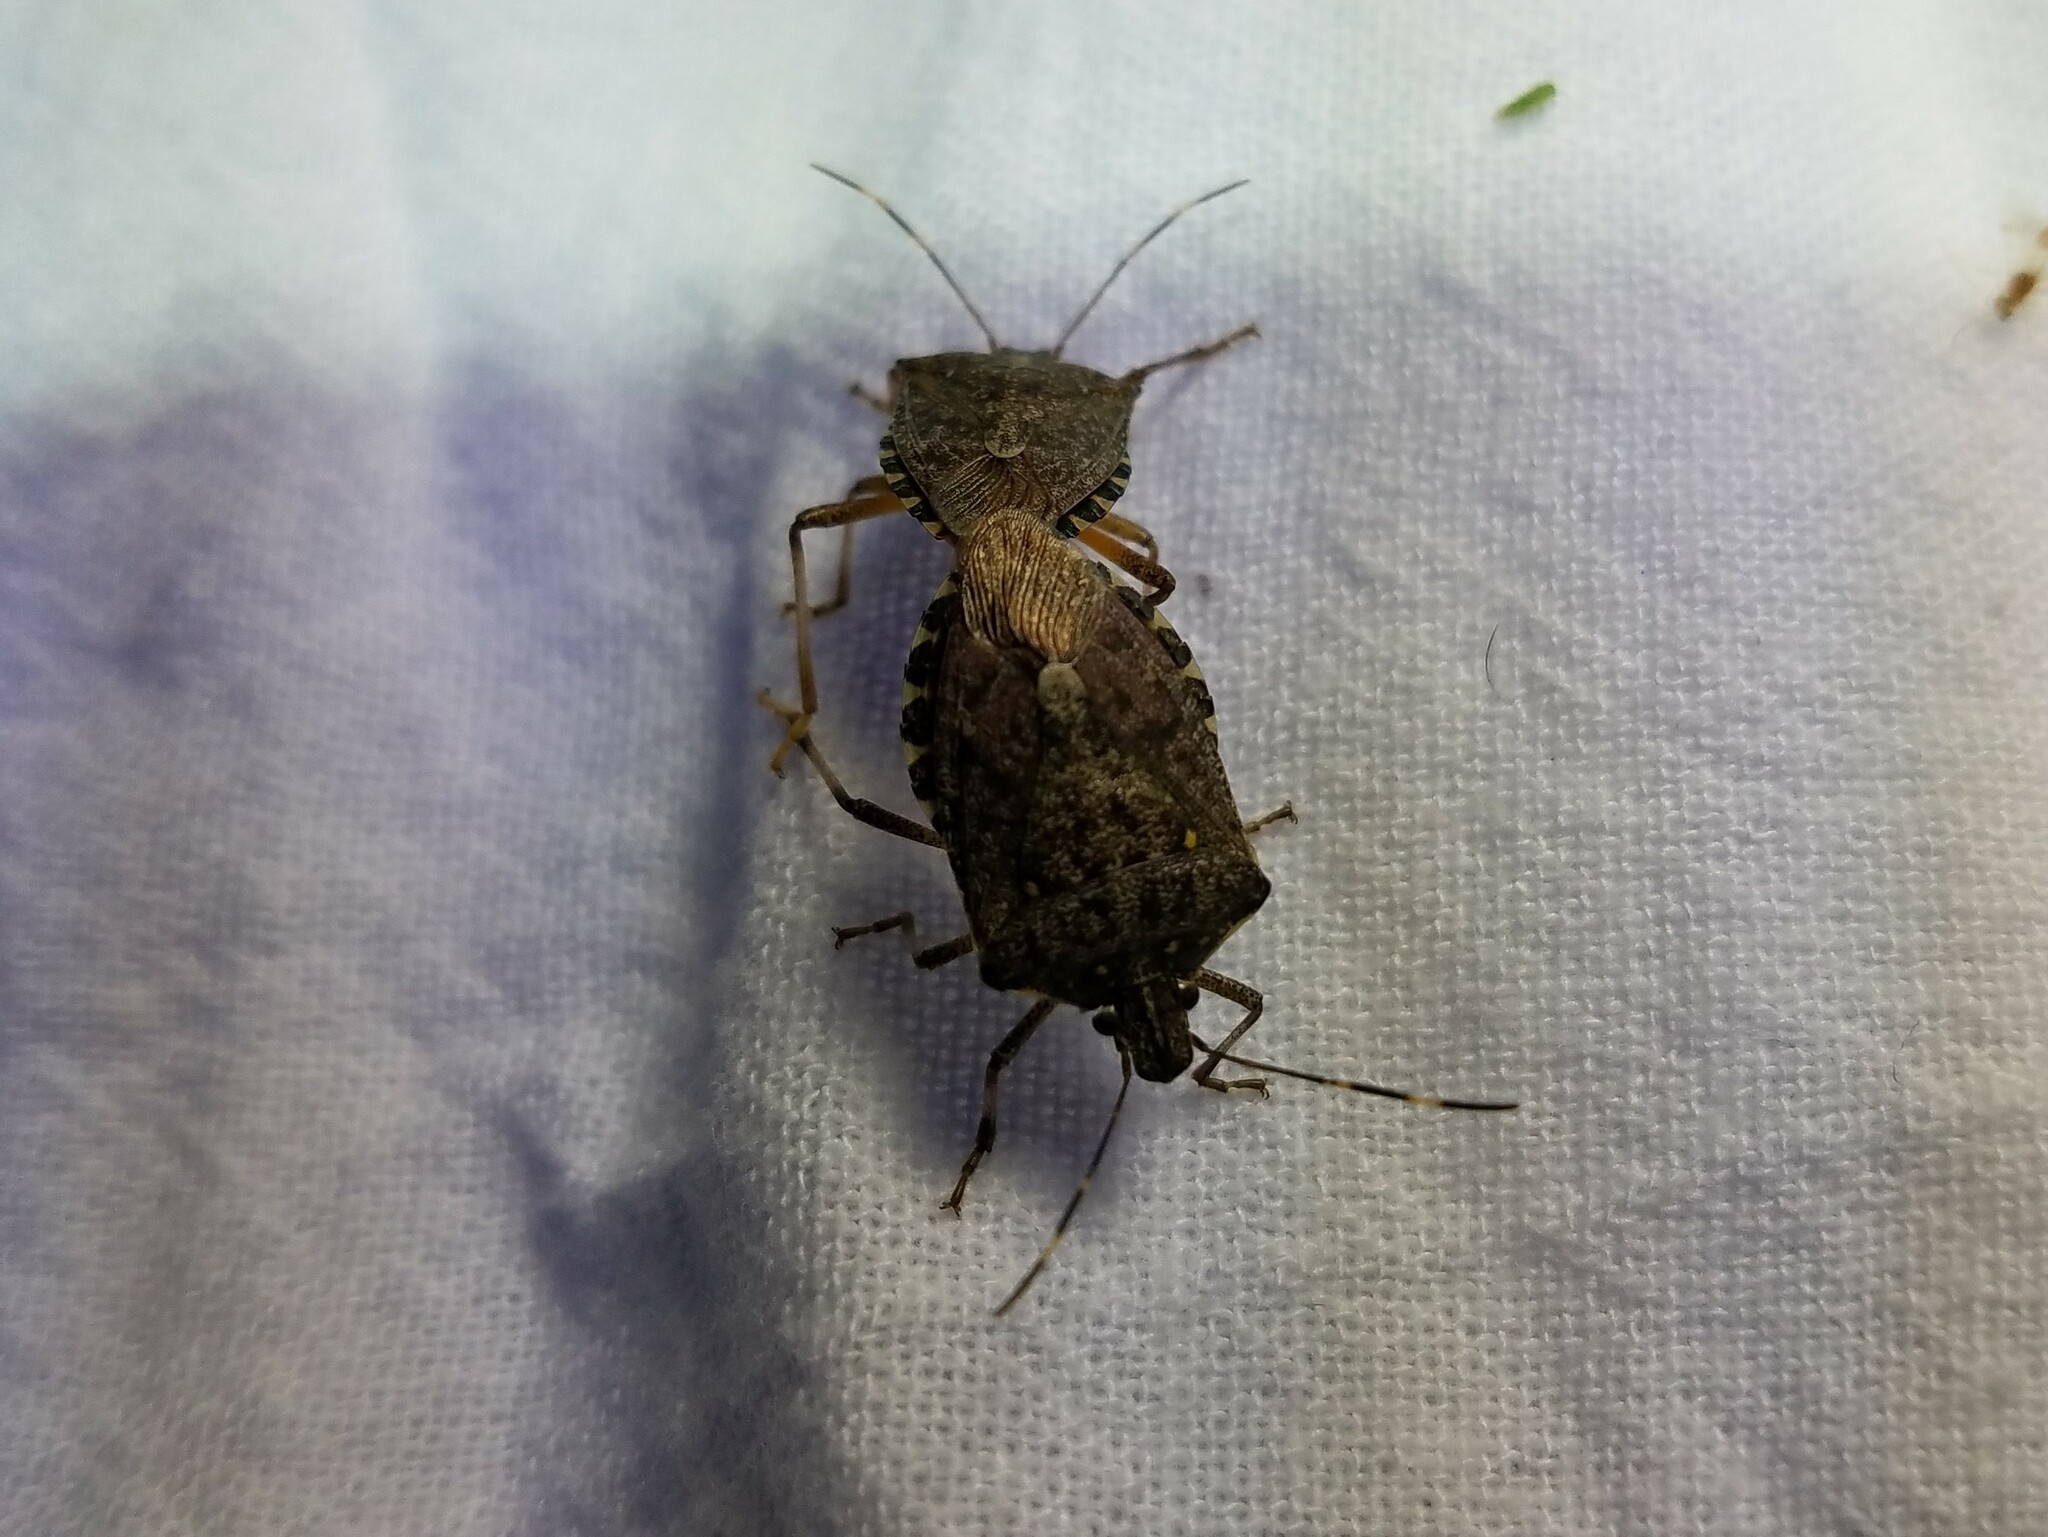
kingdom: Animalia
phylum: Arthropoda
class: Insecta
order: Hemiptera
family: Pentatomidae
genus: Halyomorpha
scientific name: Halyomorpha halys
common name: Brown marmorated stink bug
